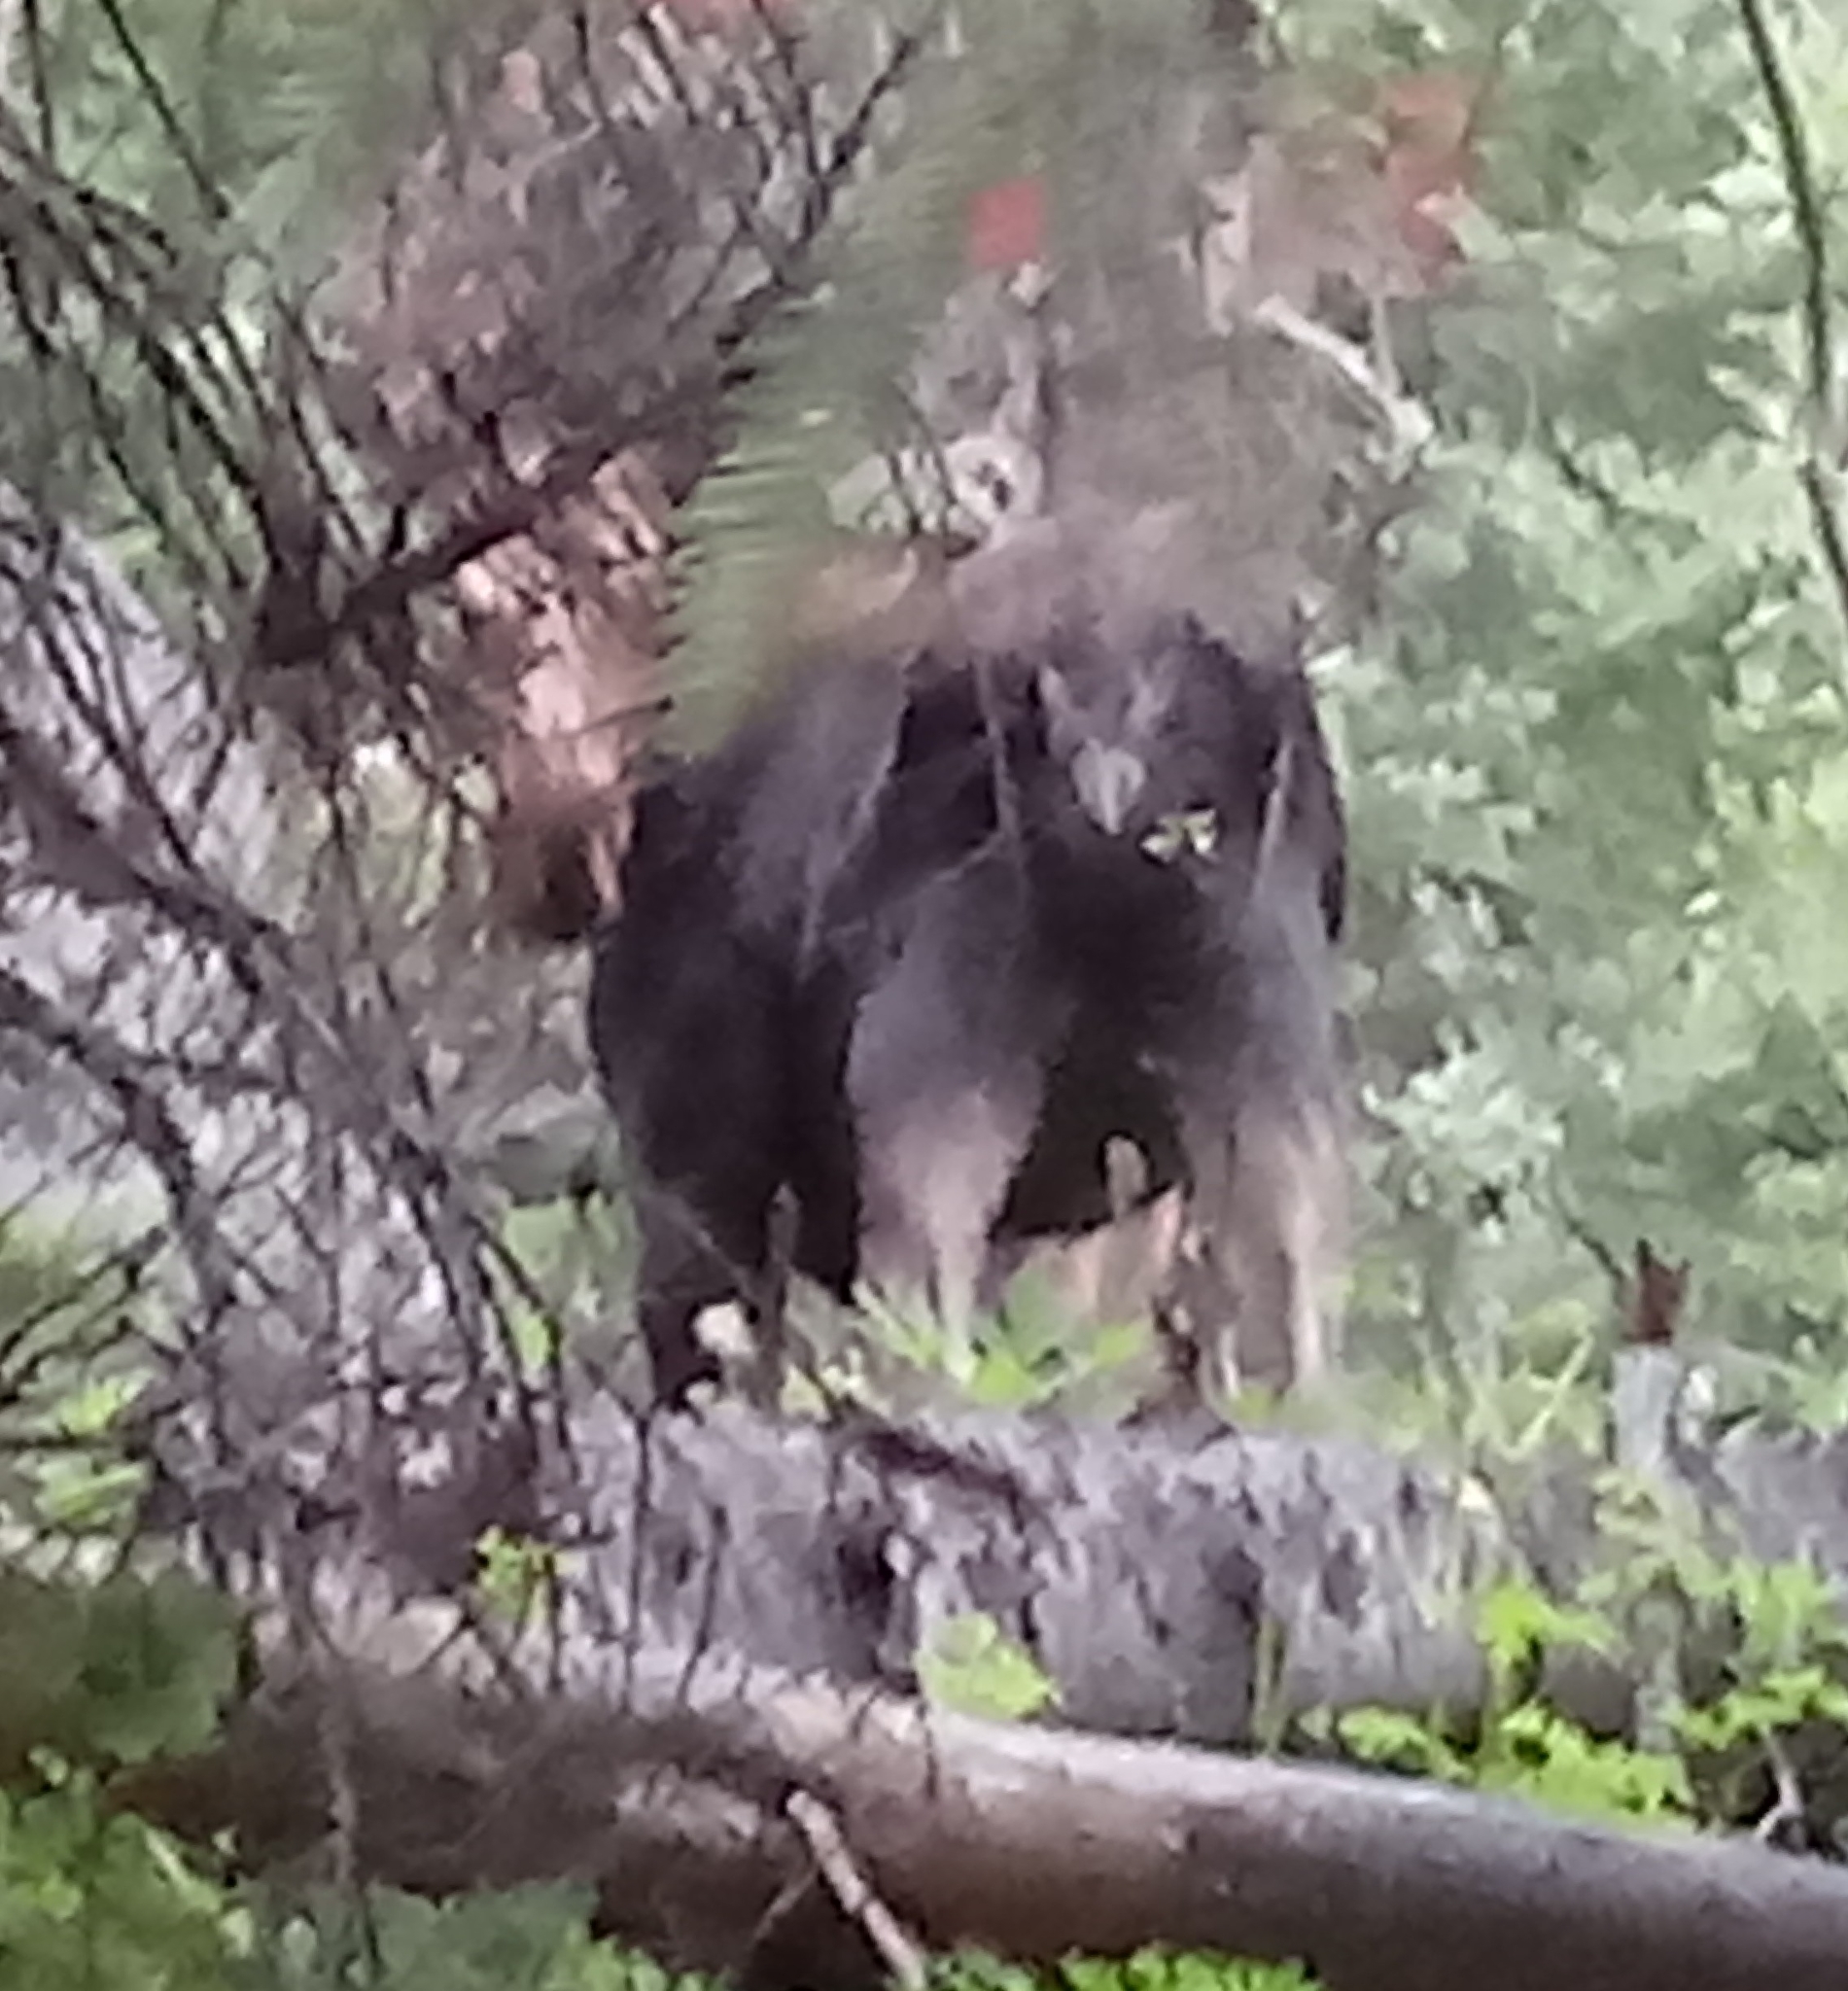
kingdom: Animalia
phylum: Chordata
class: Mammalia
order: Artiodactyla
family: Cervidae
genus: Alces
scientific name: Alces alces
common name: Moose
